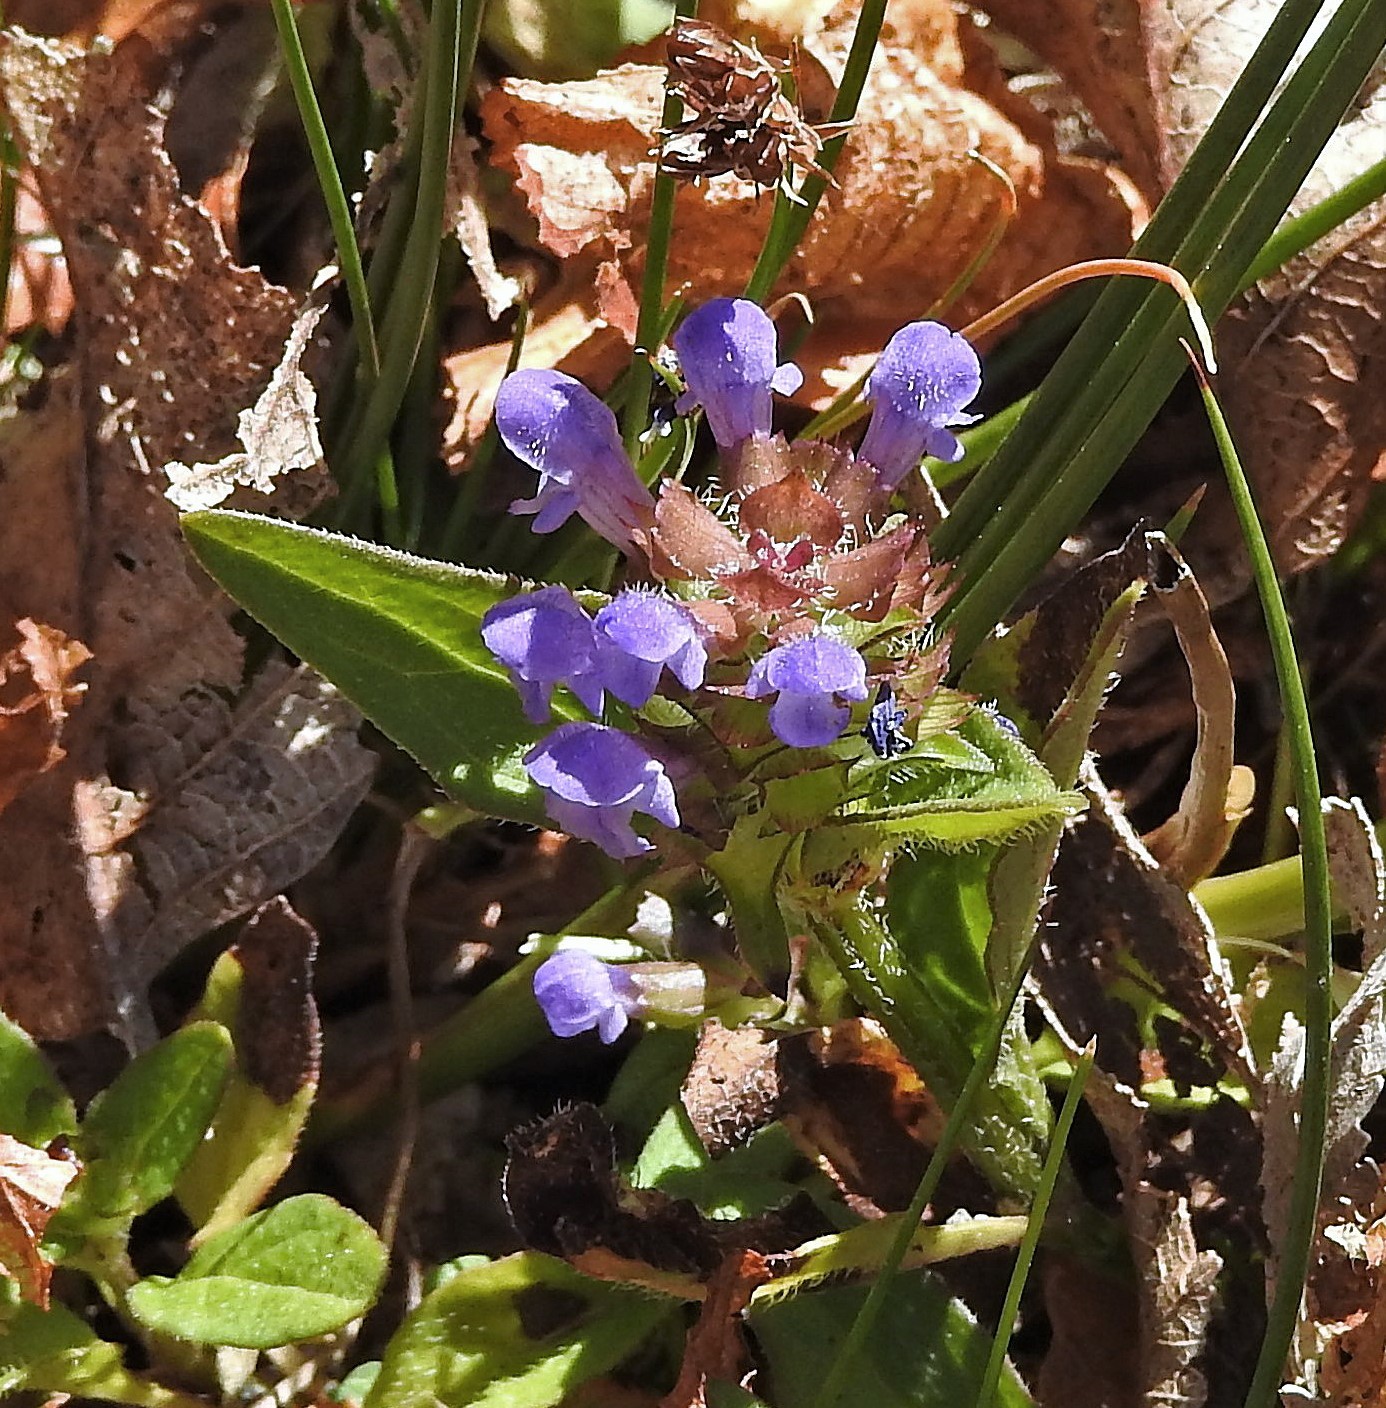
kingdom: Plantae
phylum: Tracheophyta
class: Magnoliopsida
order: Lamiales
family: Lamiaceae
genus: Prunella
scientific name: Prunella vulgaris
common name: Heal-all
